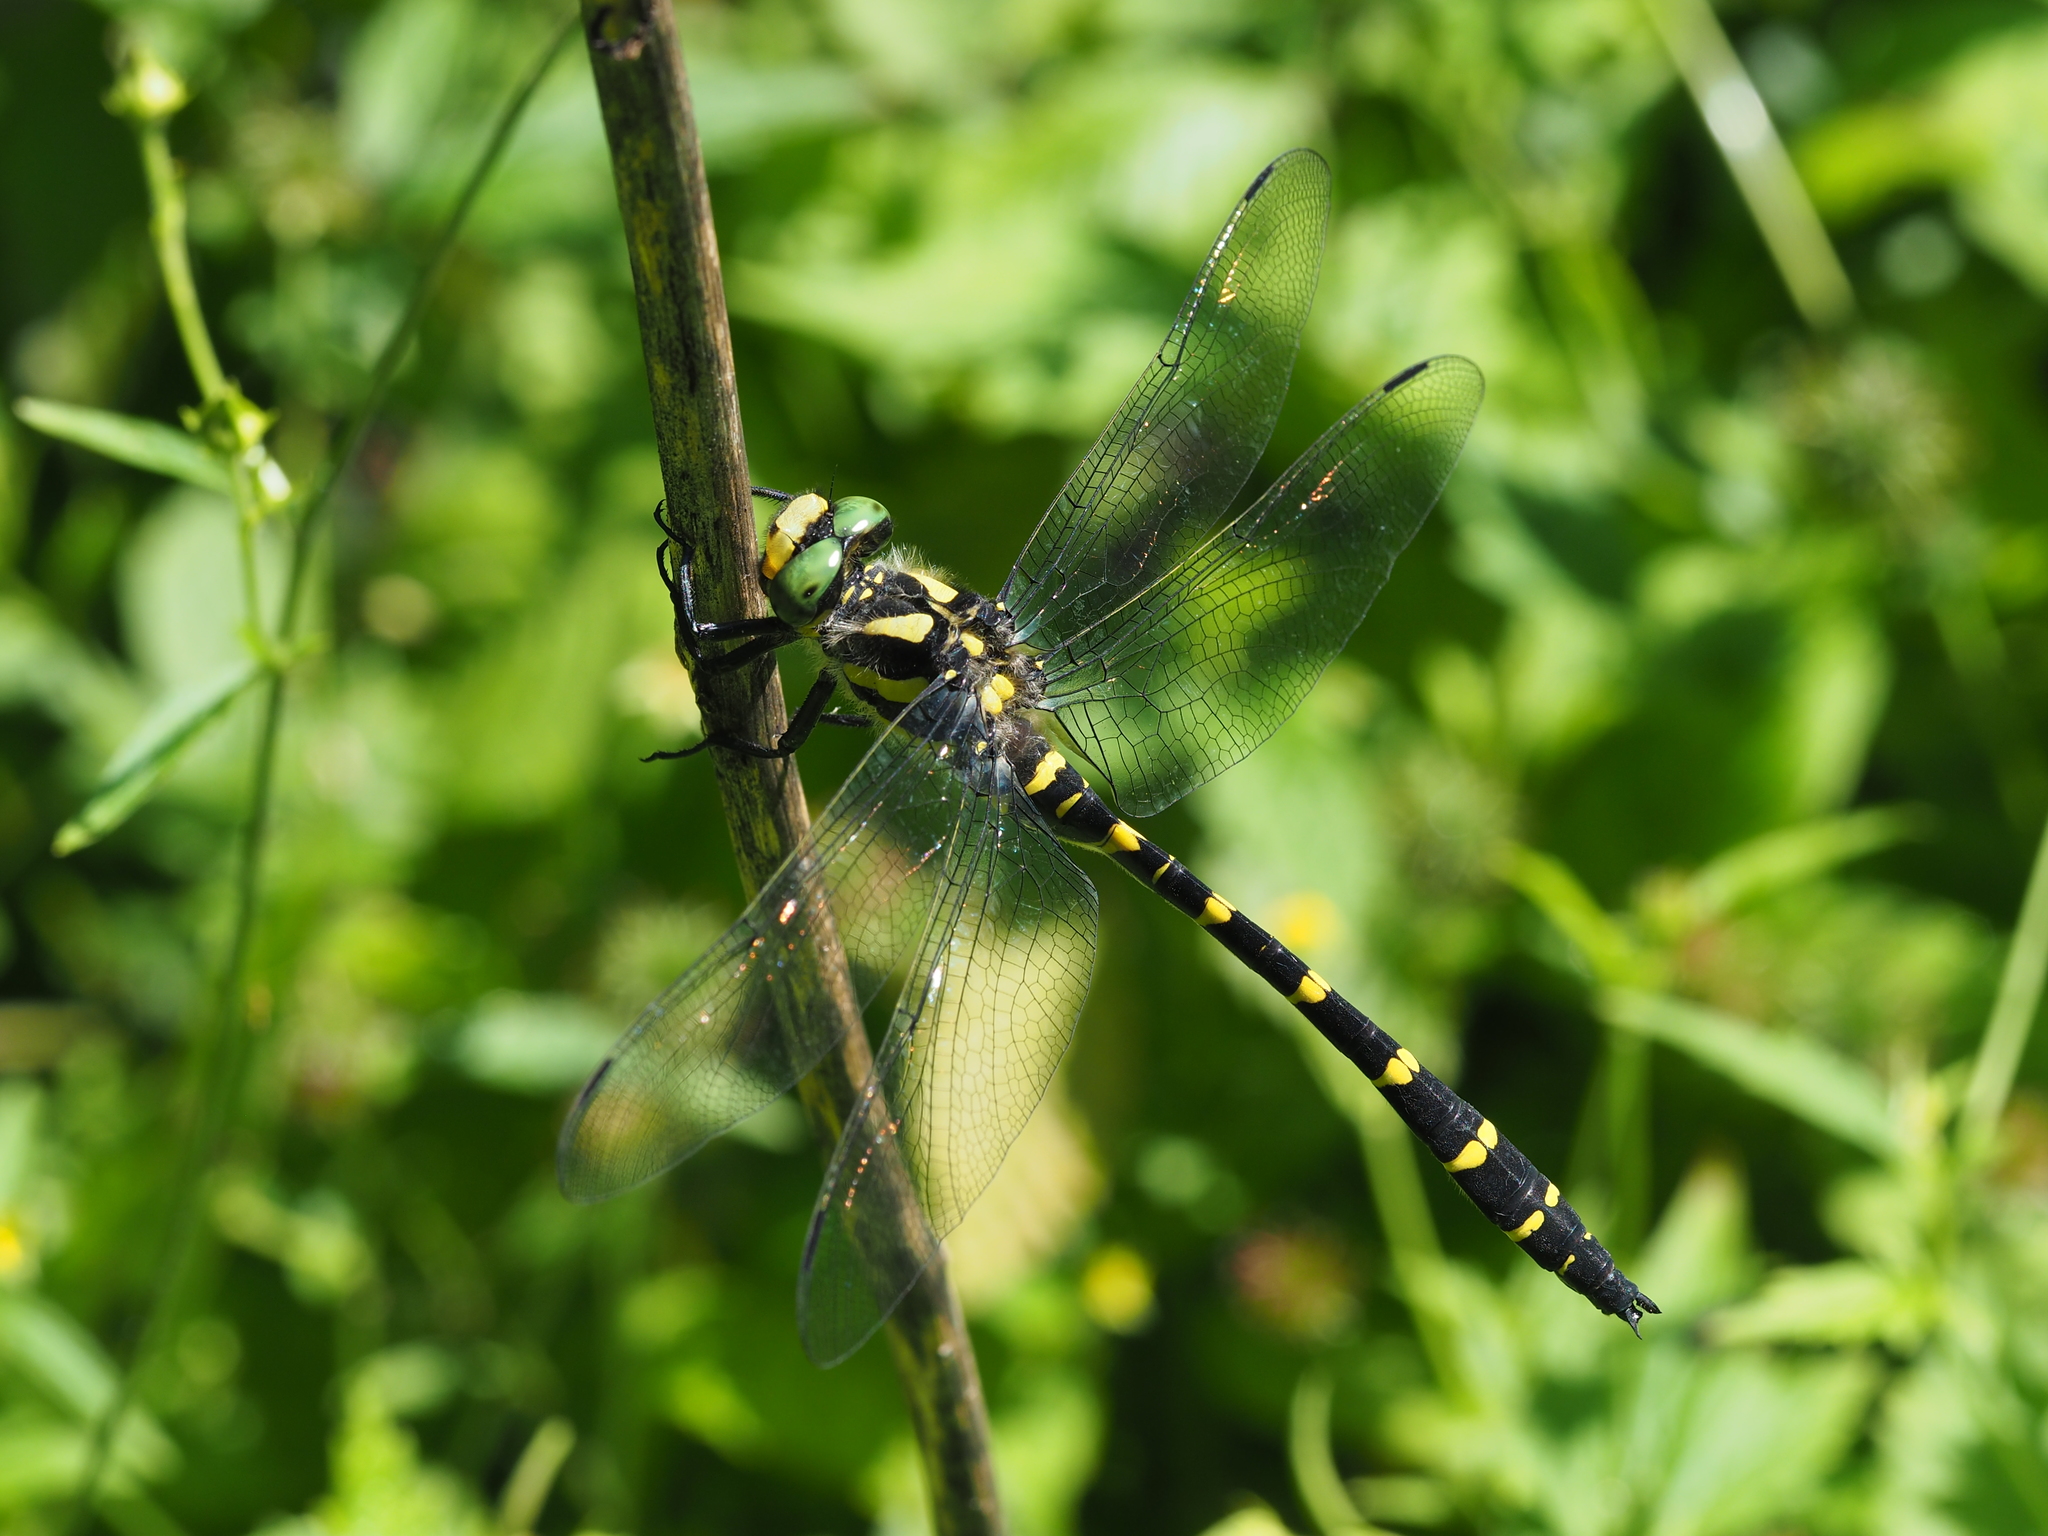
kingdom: Animalia
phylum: Arthropoda
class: Insecta
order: Odonata
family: Cordulegastridae
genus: Cordulegaster
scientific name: Cordulegaster bidentata
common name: Sombre goldenring
